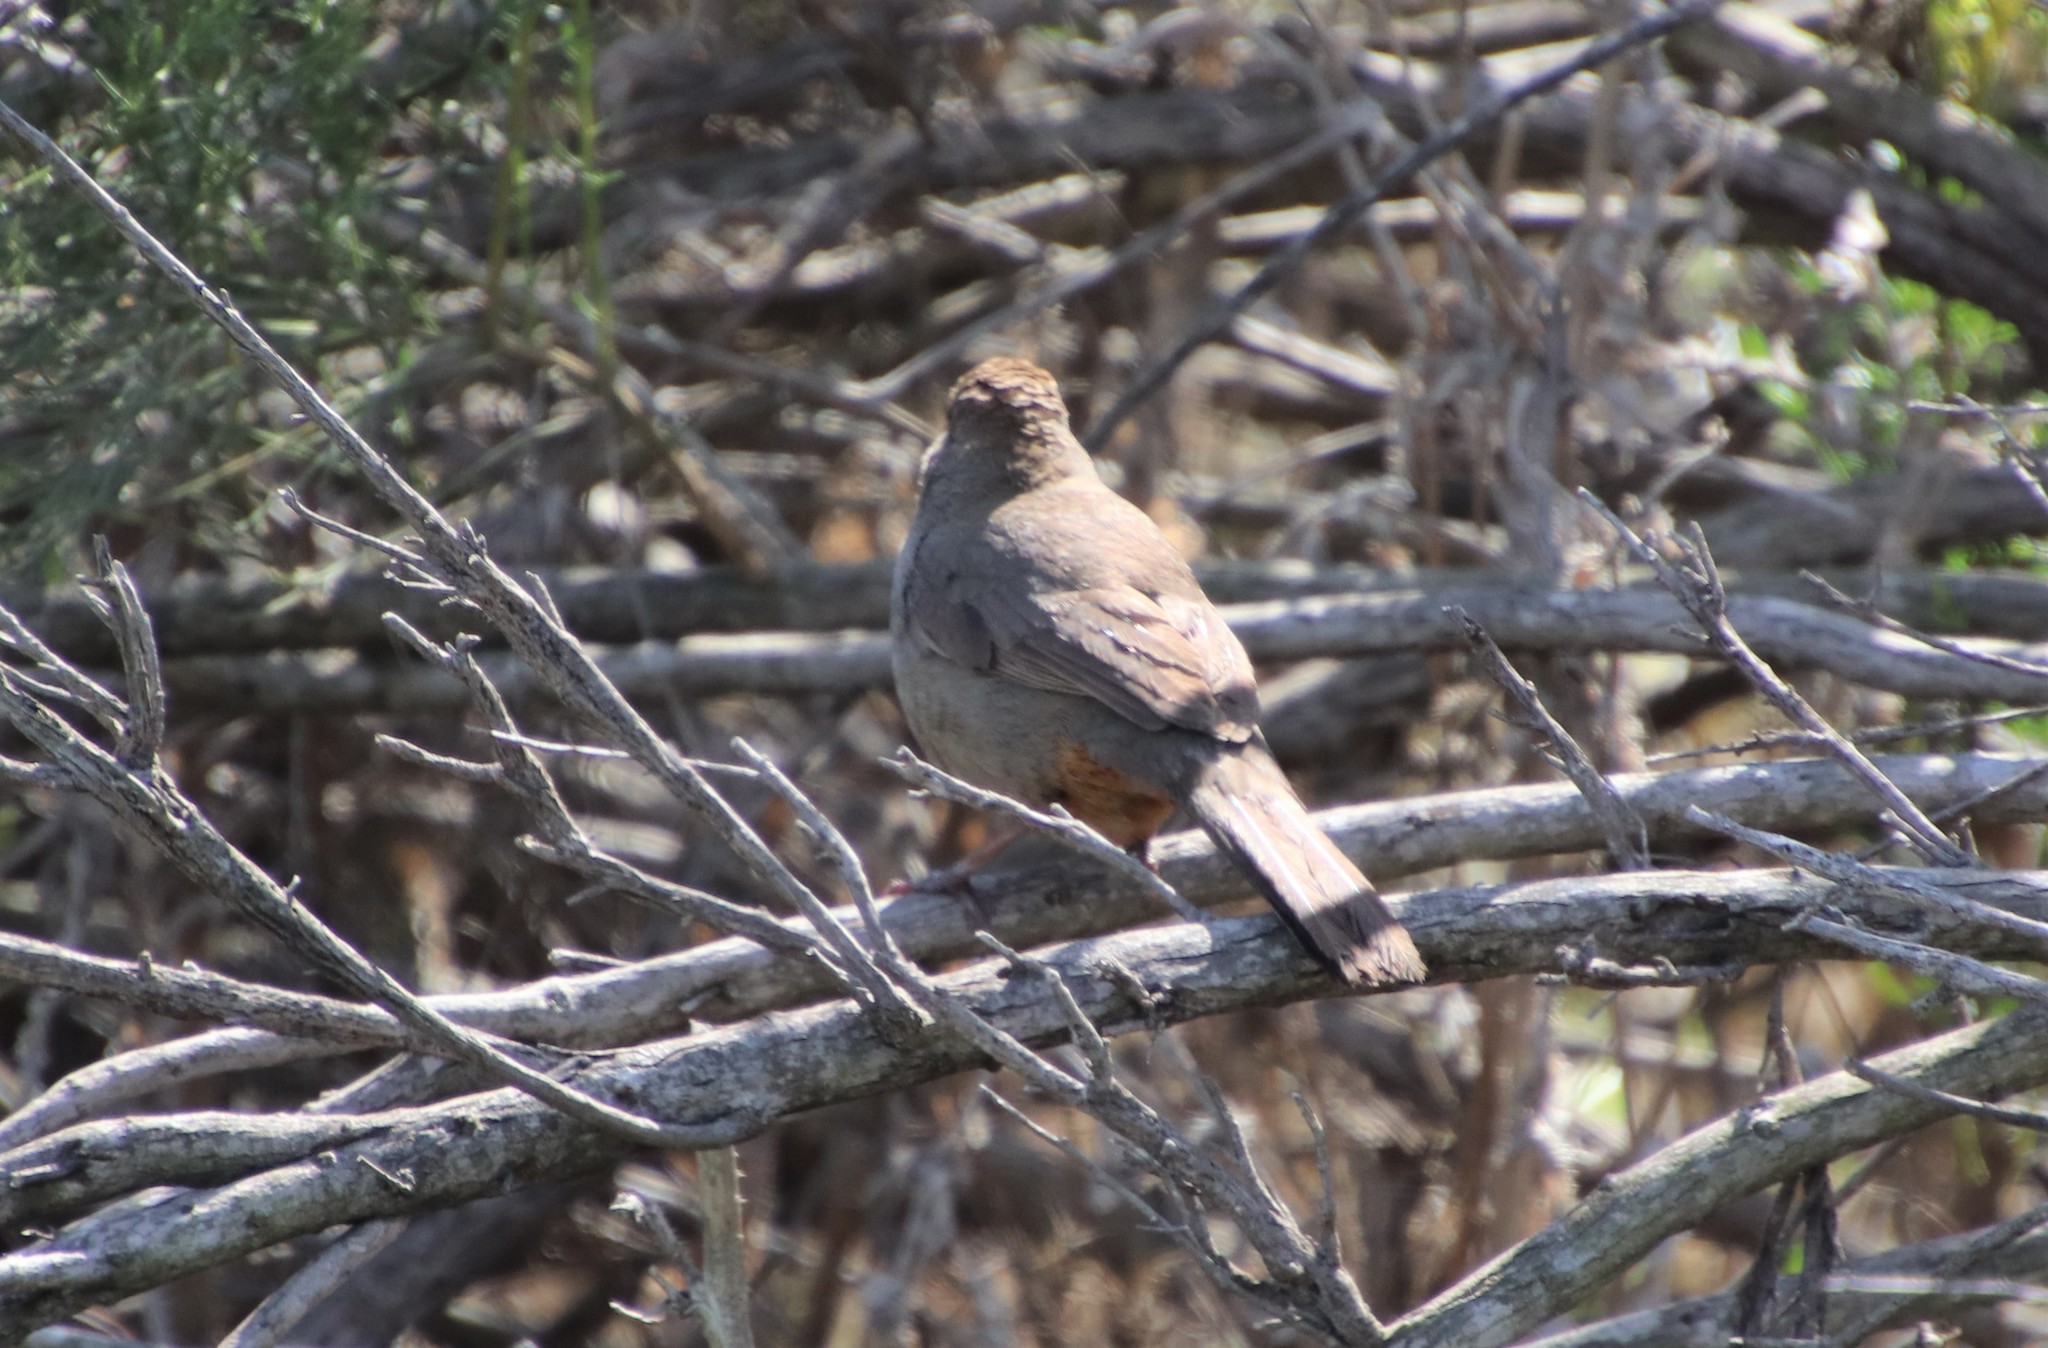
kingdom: Animalia
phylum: Chordata
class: Aves
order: Passeriformes
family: Passerellidae
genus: Melozone
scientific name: Melozone crissalis
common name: California towhee
